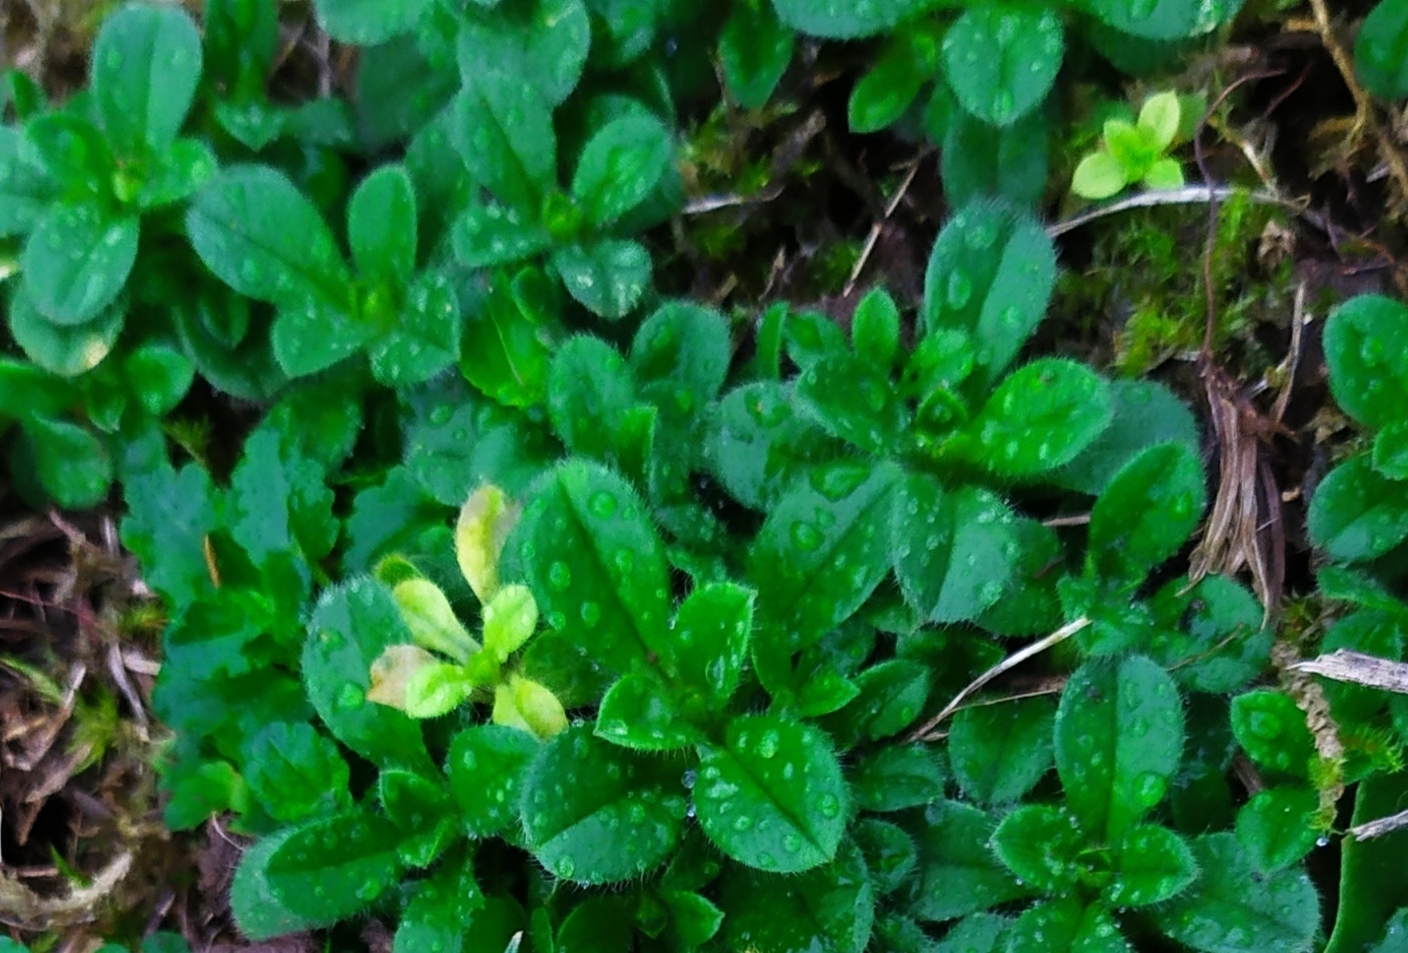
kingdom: Plantae
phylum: Tracheophyta
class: Magnoliopsida
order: Caryophyllales
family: Caryophyllaceae
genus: Cerastium
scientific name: Cerastium glomeratum
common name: Sticky chickweed
